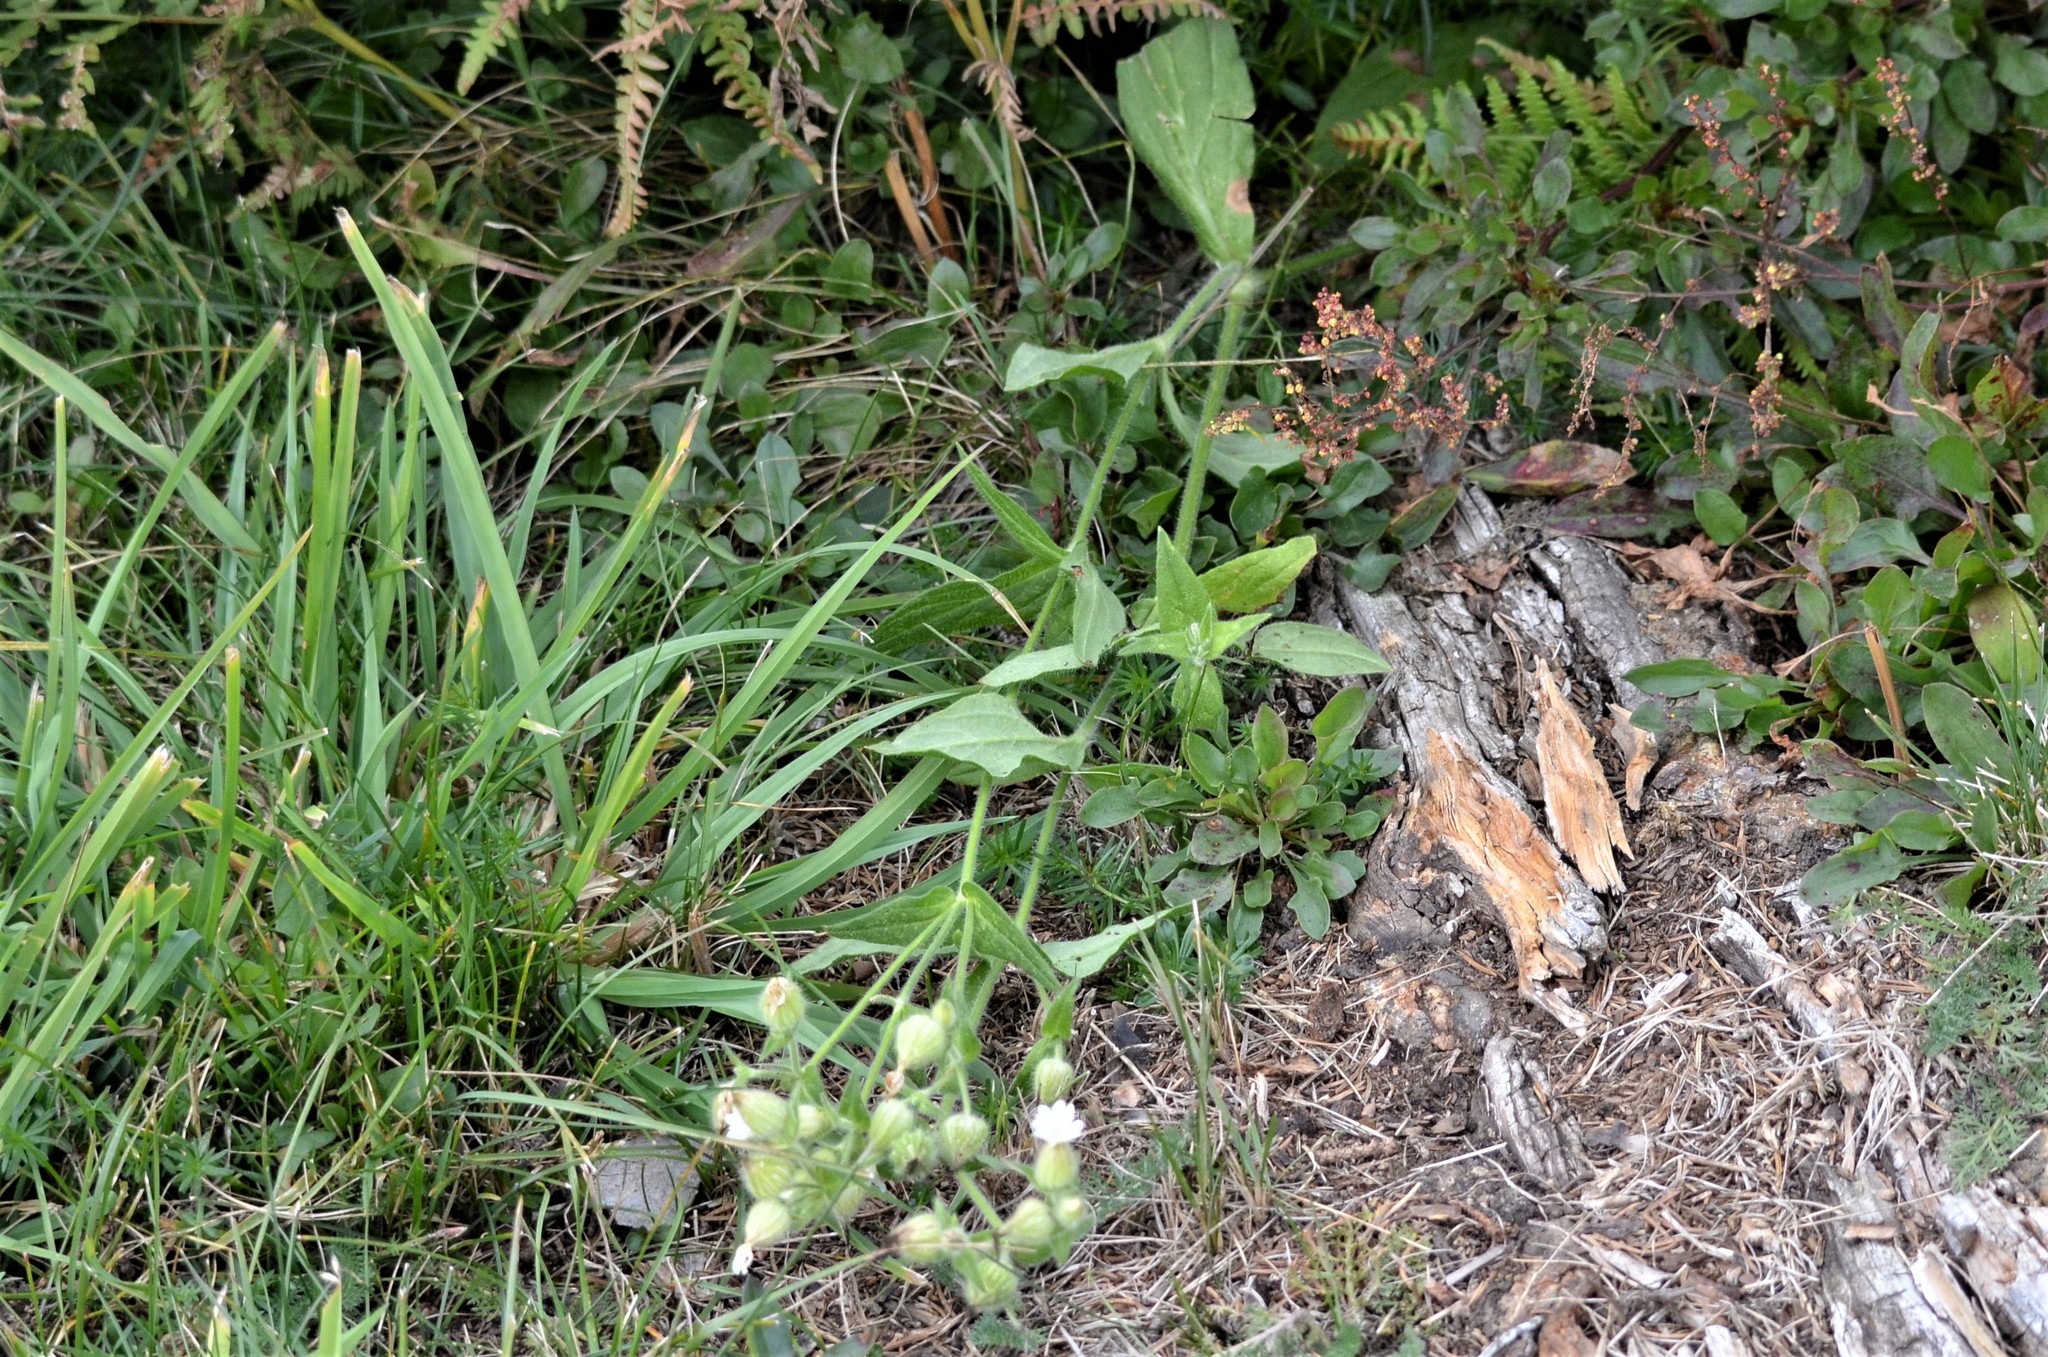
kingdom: Plantae
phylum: Tracheophyta
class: Magnoliopsida
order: Caryophyllales
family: Caryophyllaceae
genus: Silene
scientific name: Silene latifolia
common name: White campion
